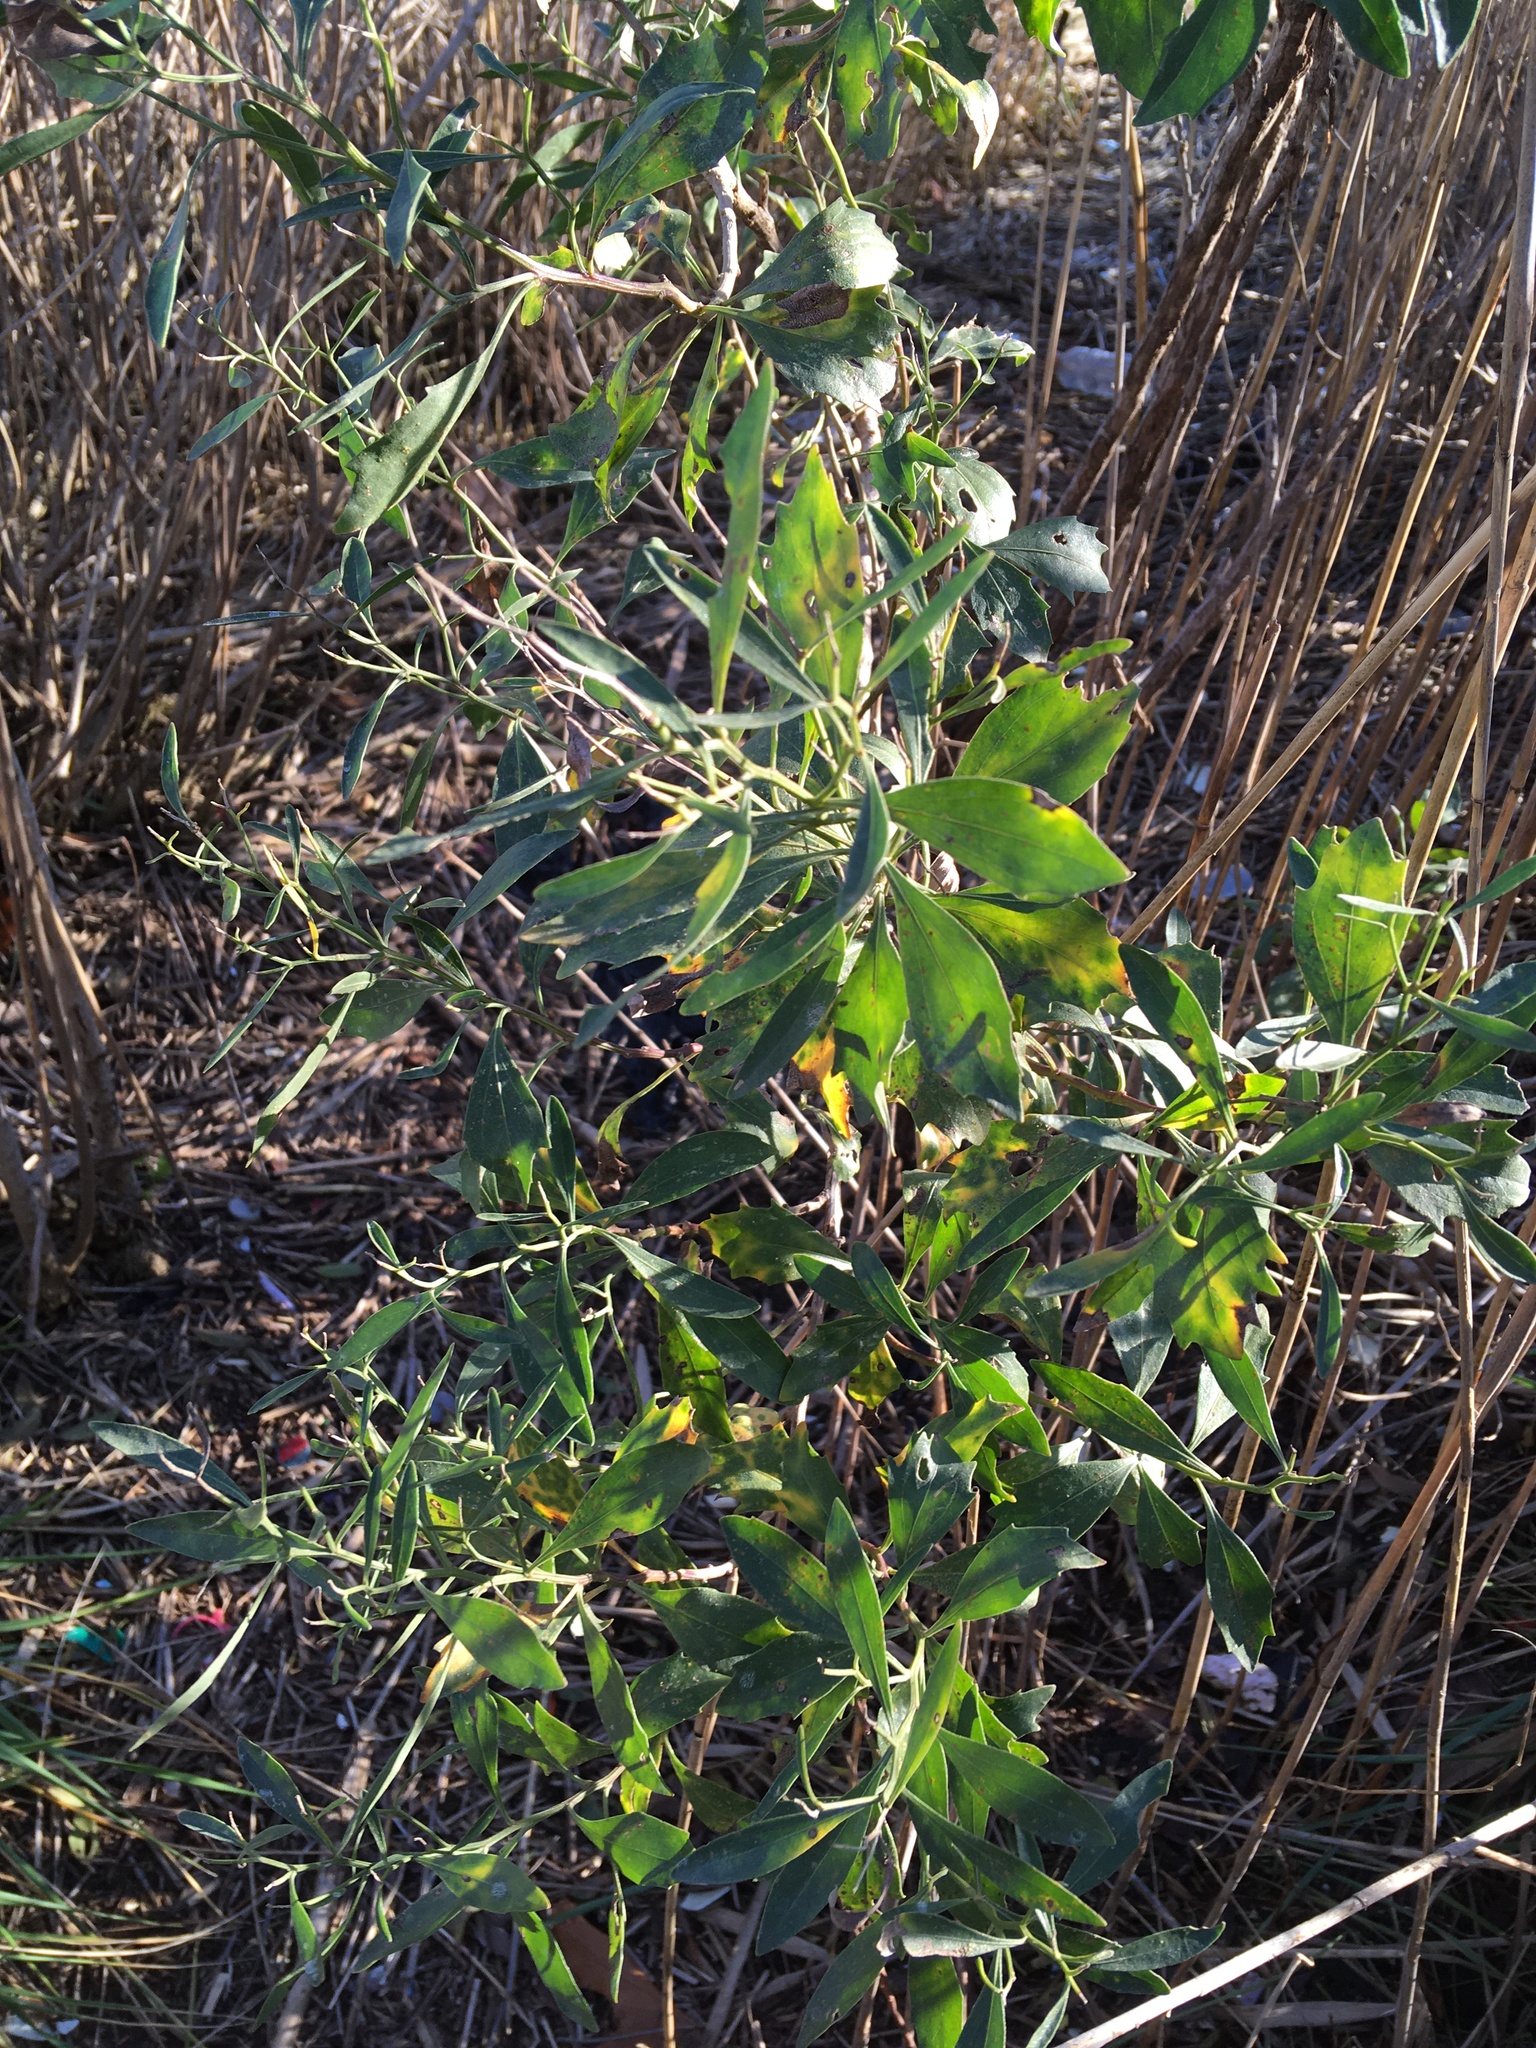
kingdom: Plantae
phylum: Tracheophyta
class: Magnoliopsida
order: Asterales
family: Asteraceae
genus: Baccharis
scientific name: Baccharis halimifolia
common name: Eastern baccharis
